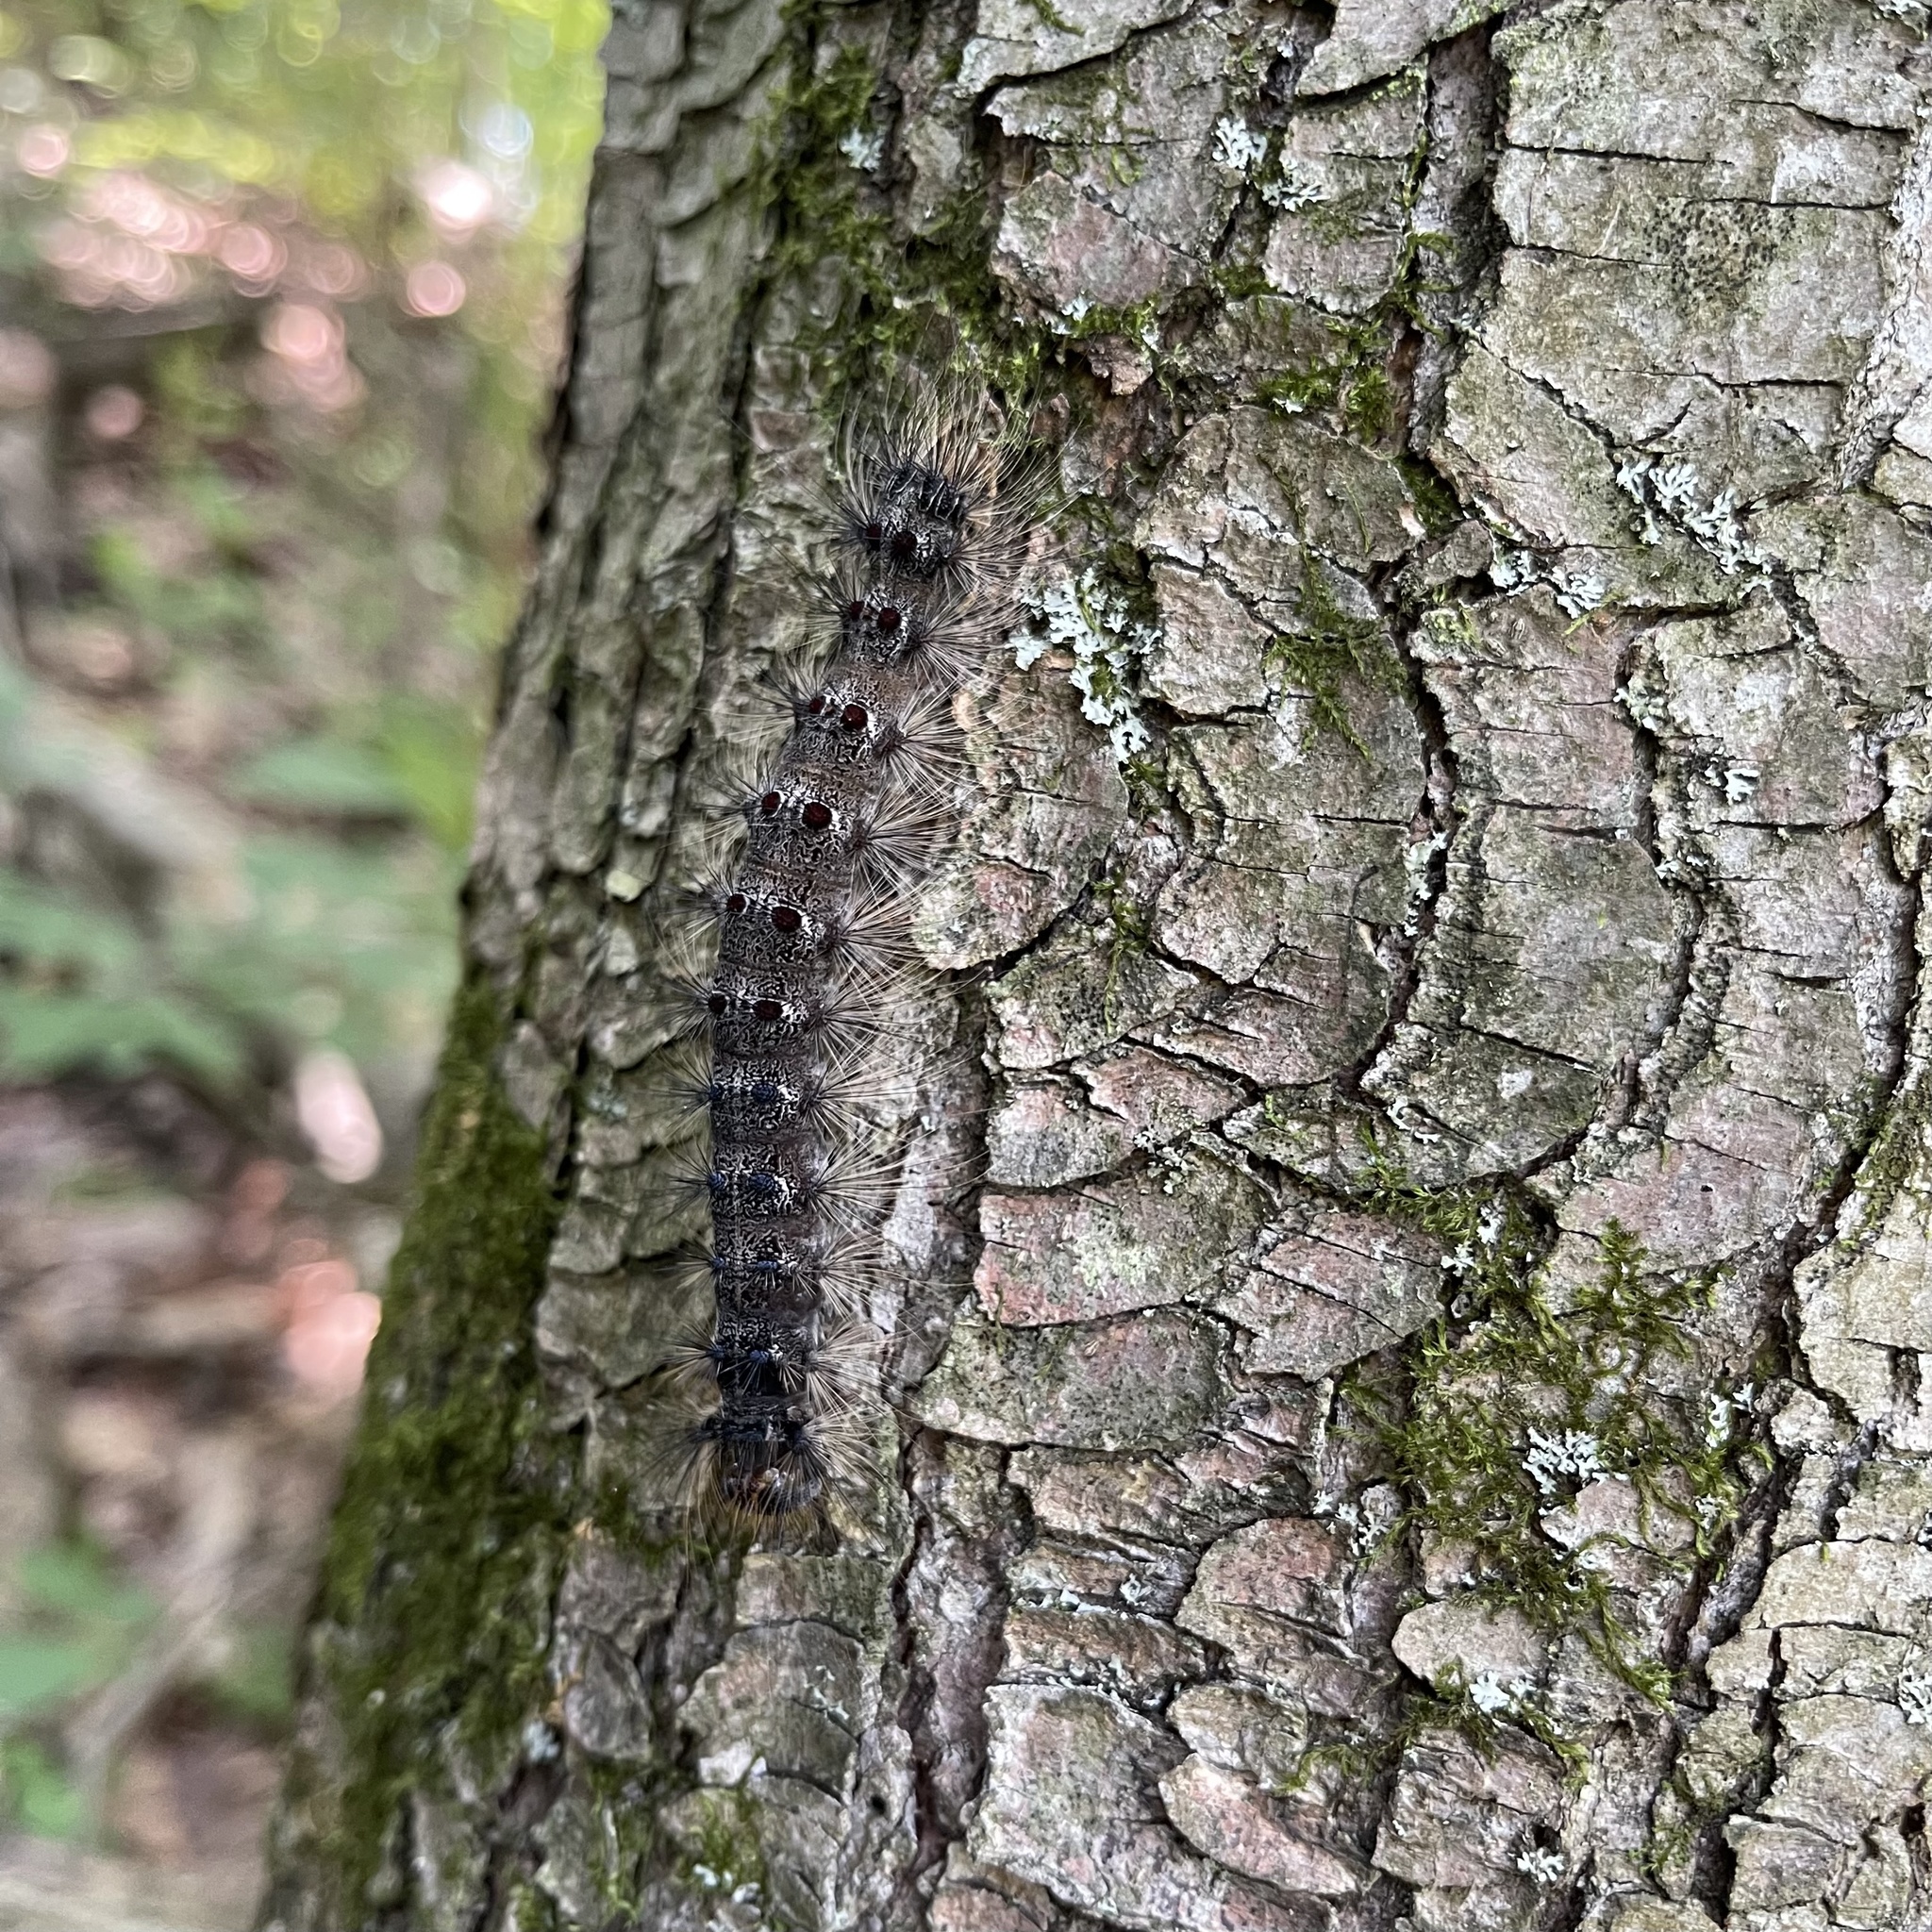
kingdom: Animalia
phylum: Arthropoda
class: Insecta
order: Lepidoptera
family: Erebidae
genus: Lymantria
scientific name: Lymantria dispar
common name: Gypsy moth
